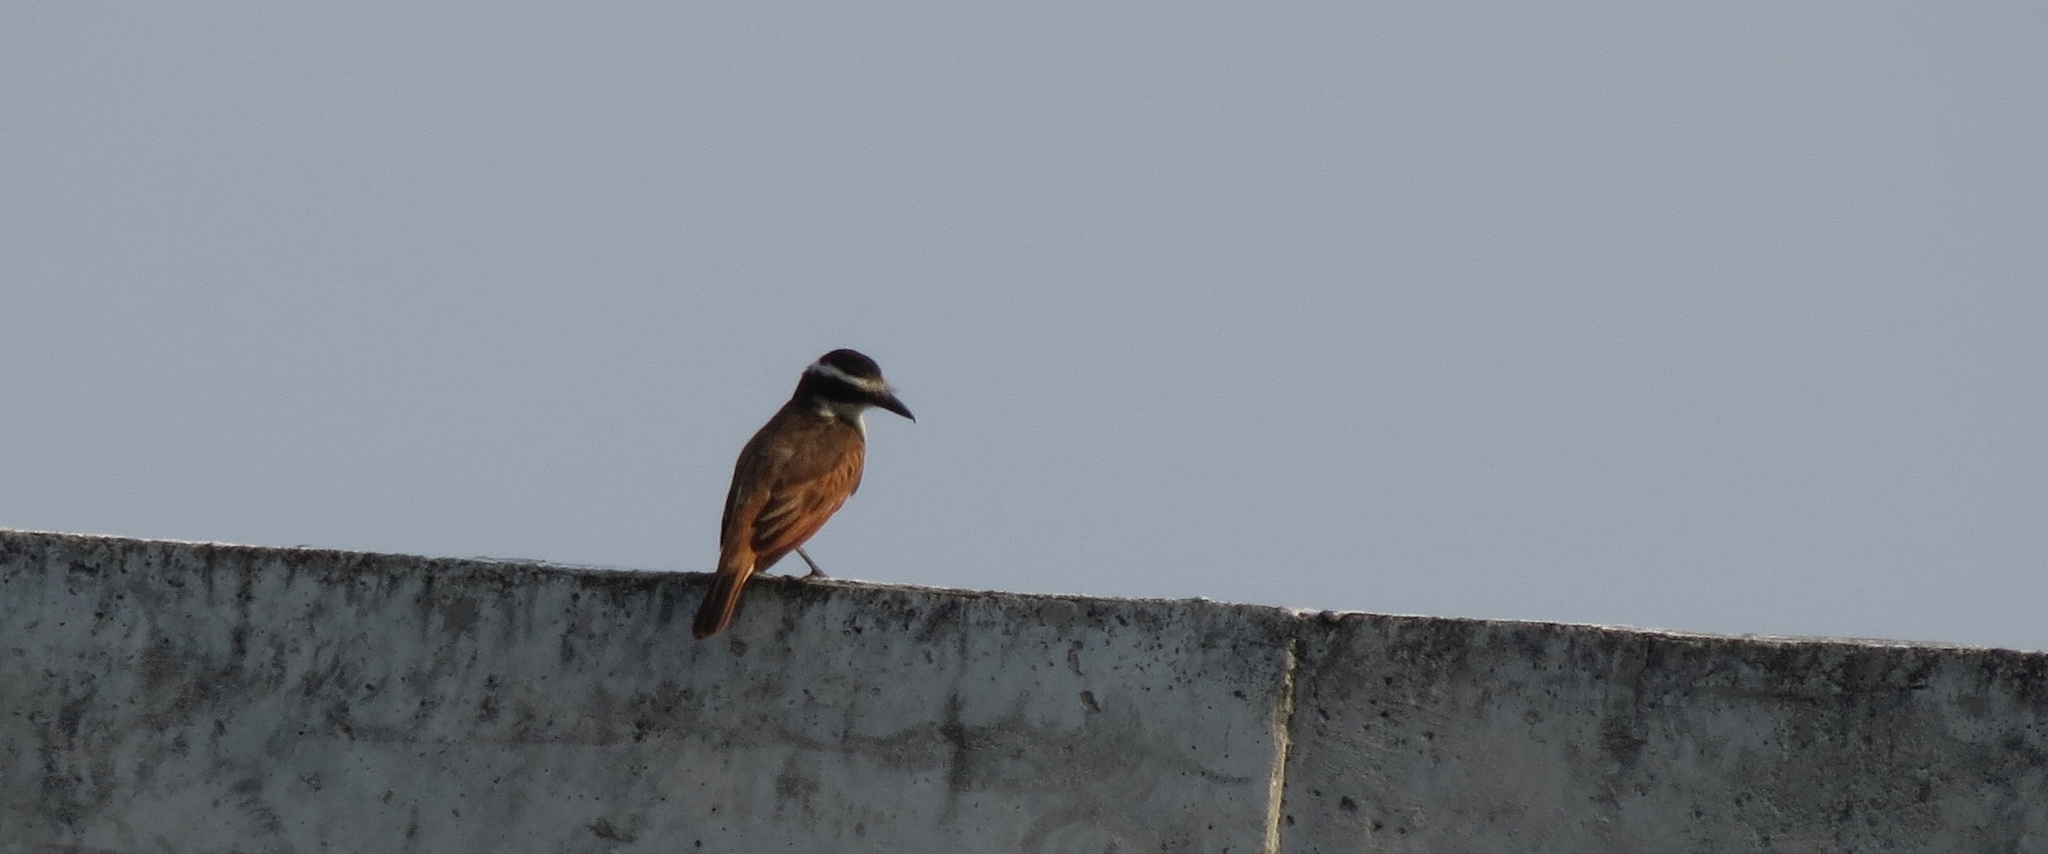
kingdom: Animalia
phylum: Chordata
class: Aves
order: Passeriformes
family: Tyrannidae
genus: Pitangus
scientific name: Pitangus sulphuratus
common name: Great kiskadee
